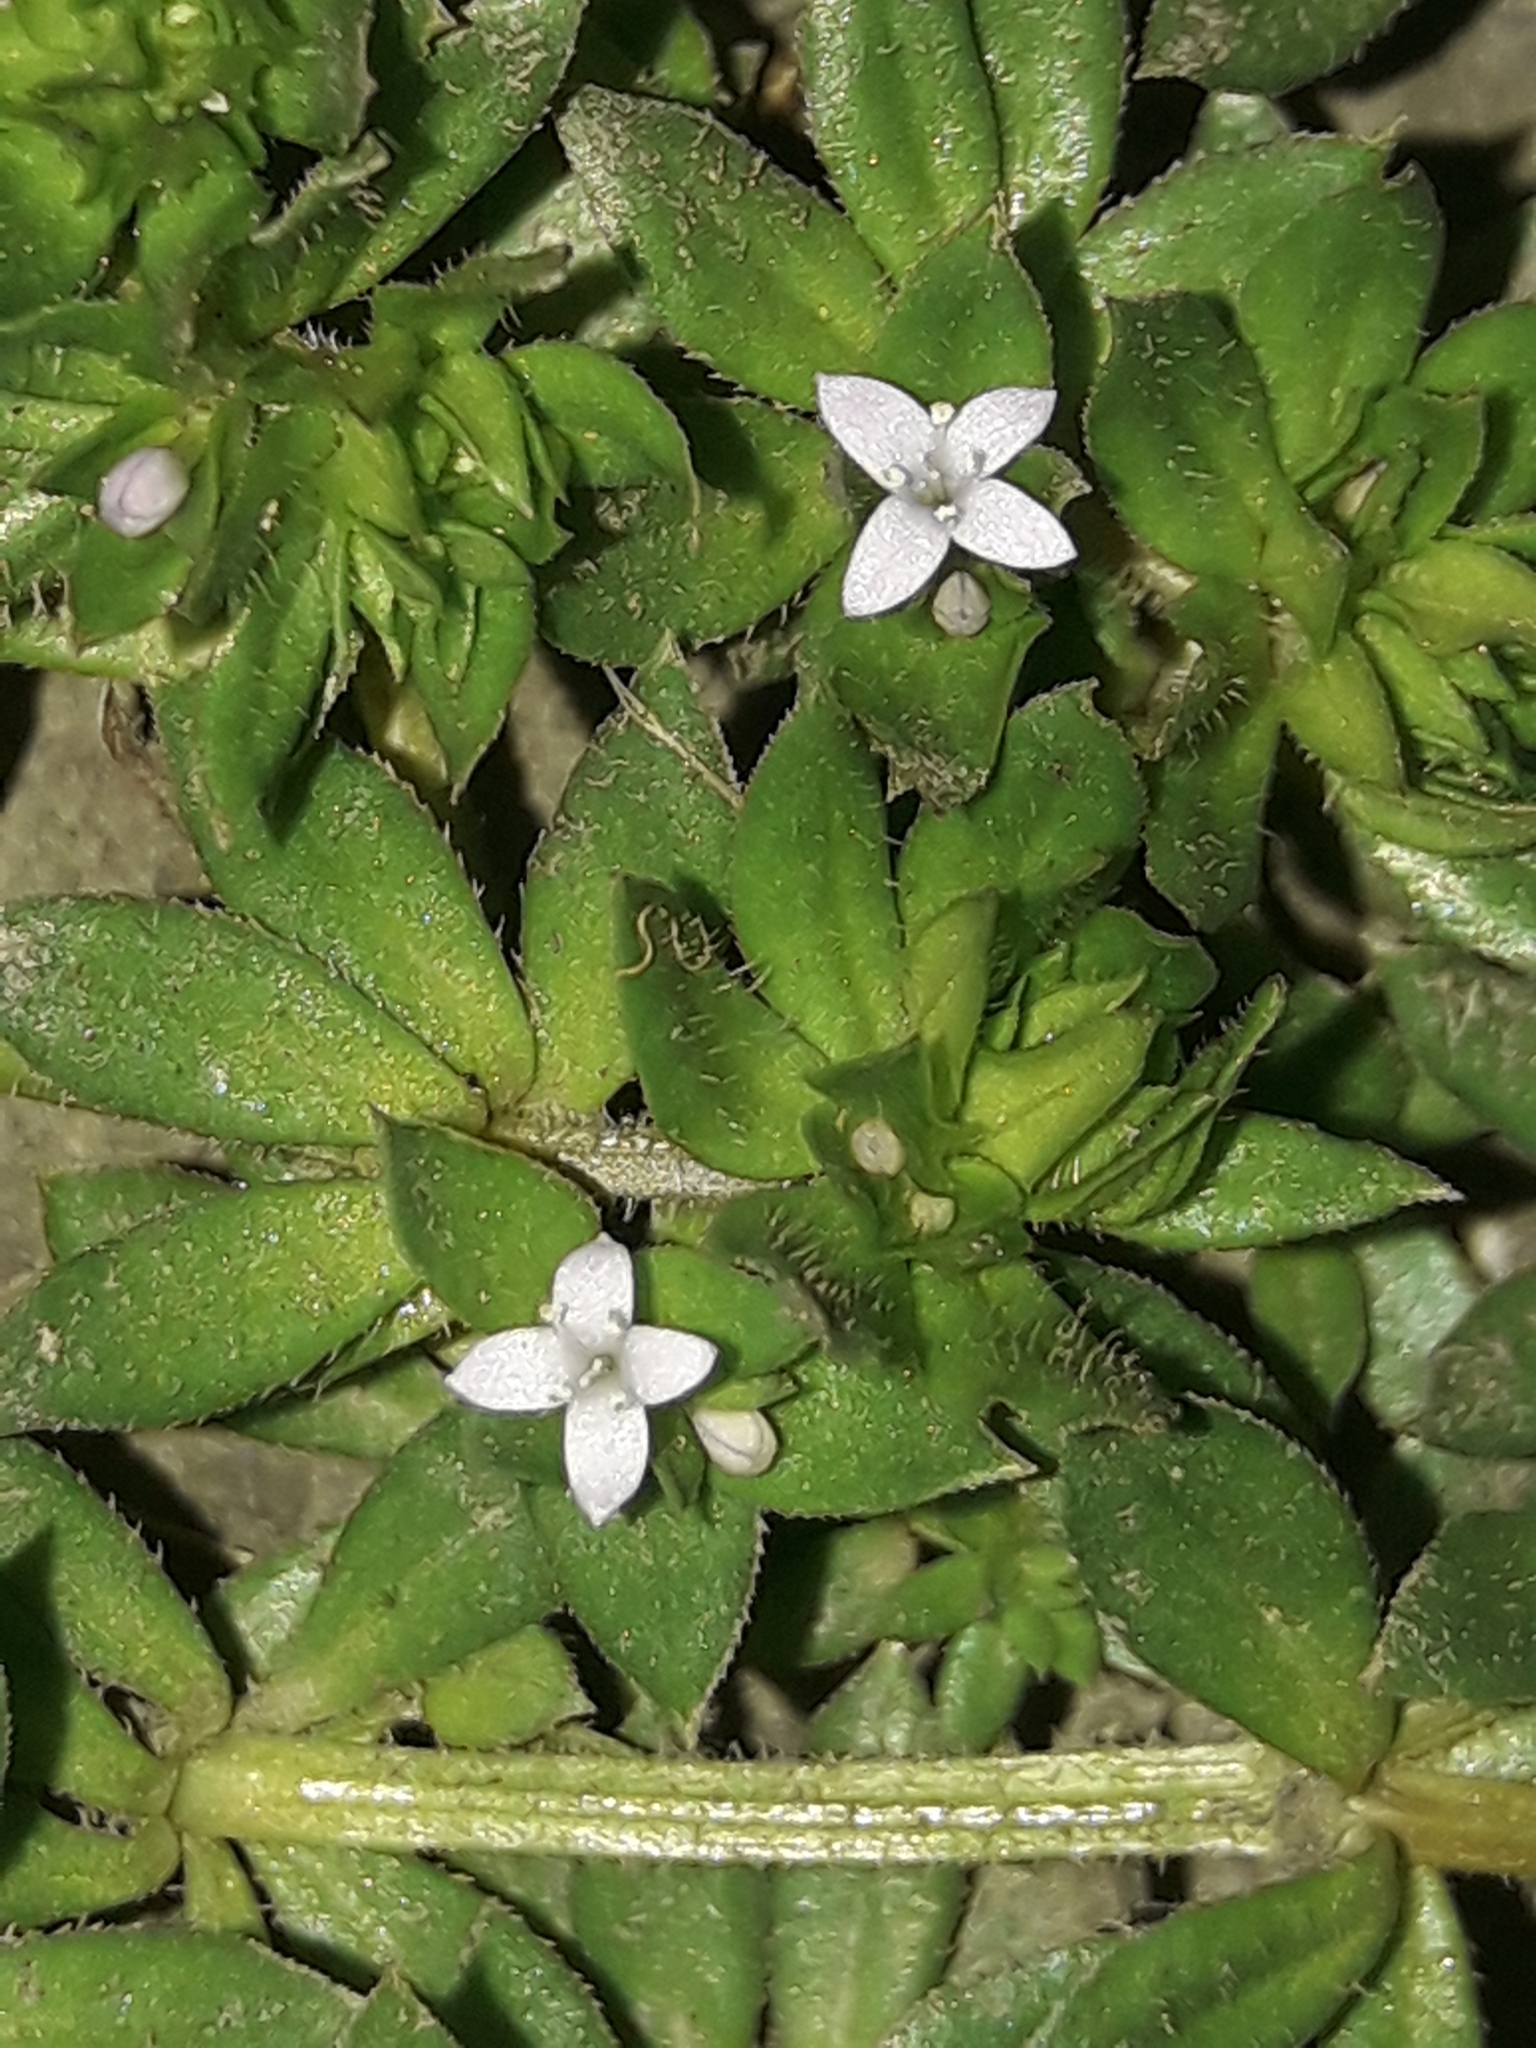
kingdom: Plantae
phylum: Tracheophyta
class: Magnoliopsida
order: Gentianales
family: Rubiaceae
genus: Sherardia
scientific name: Sherardia arvensis
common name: Field madder
